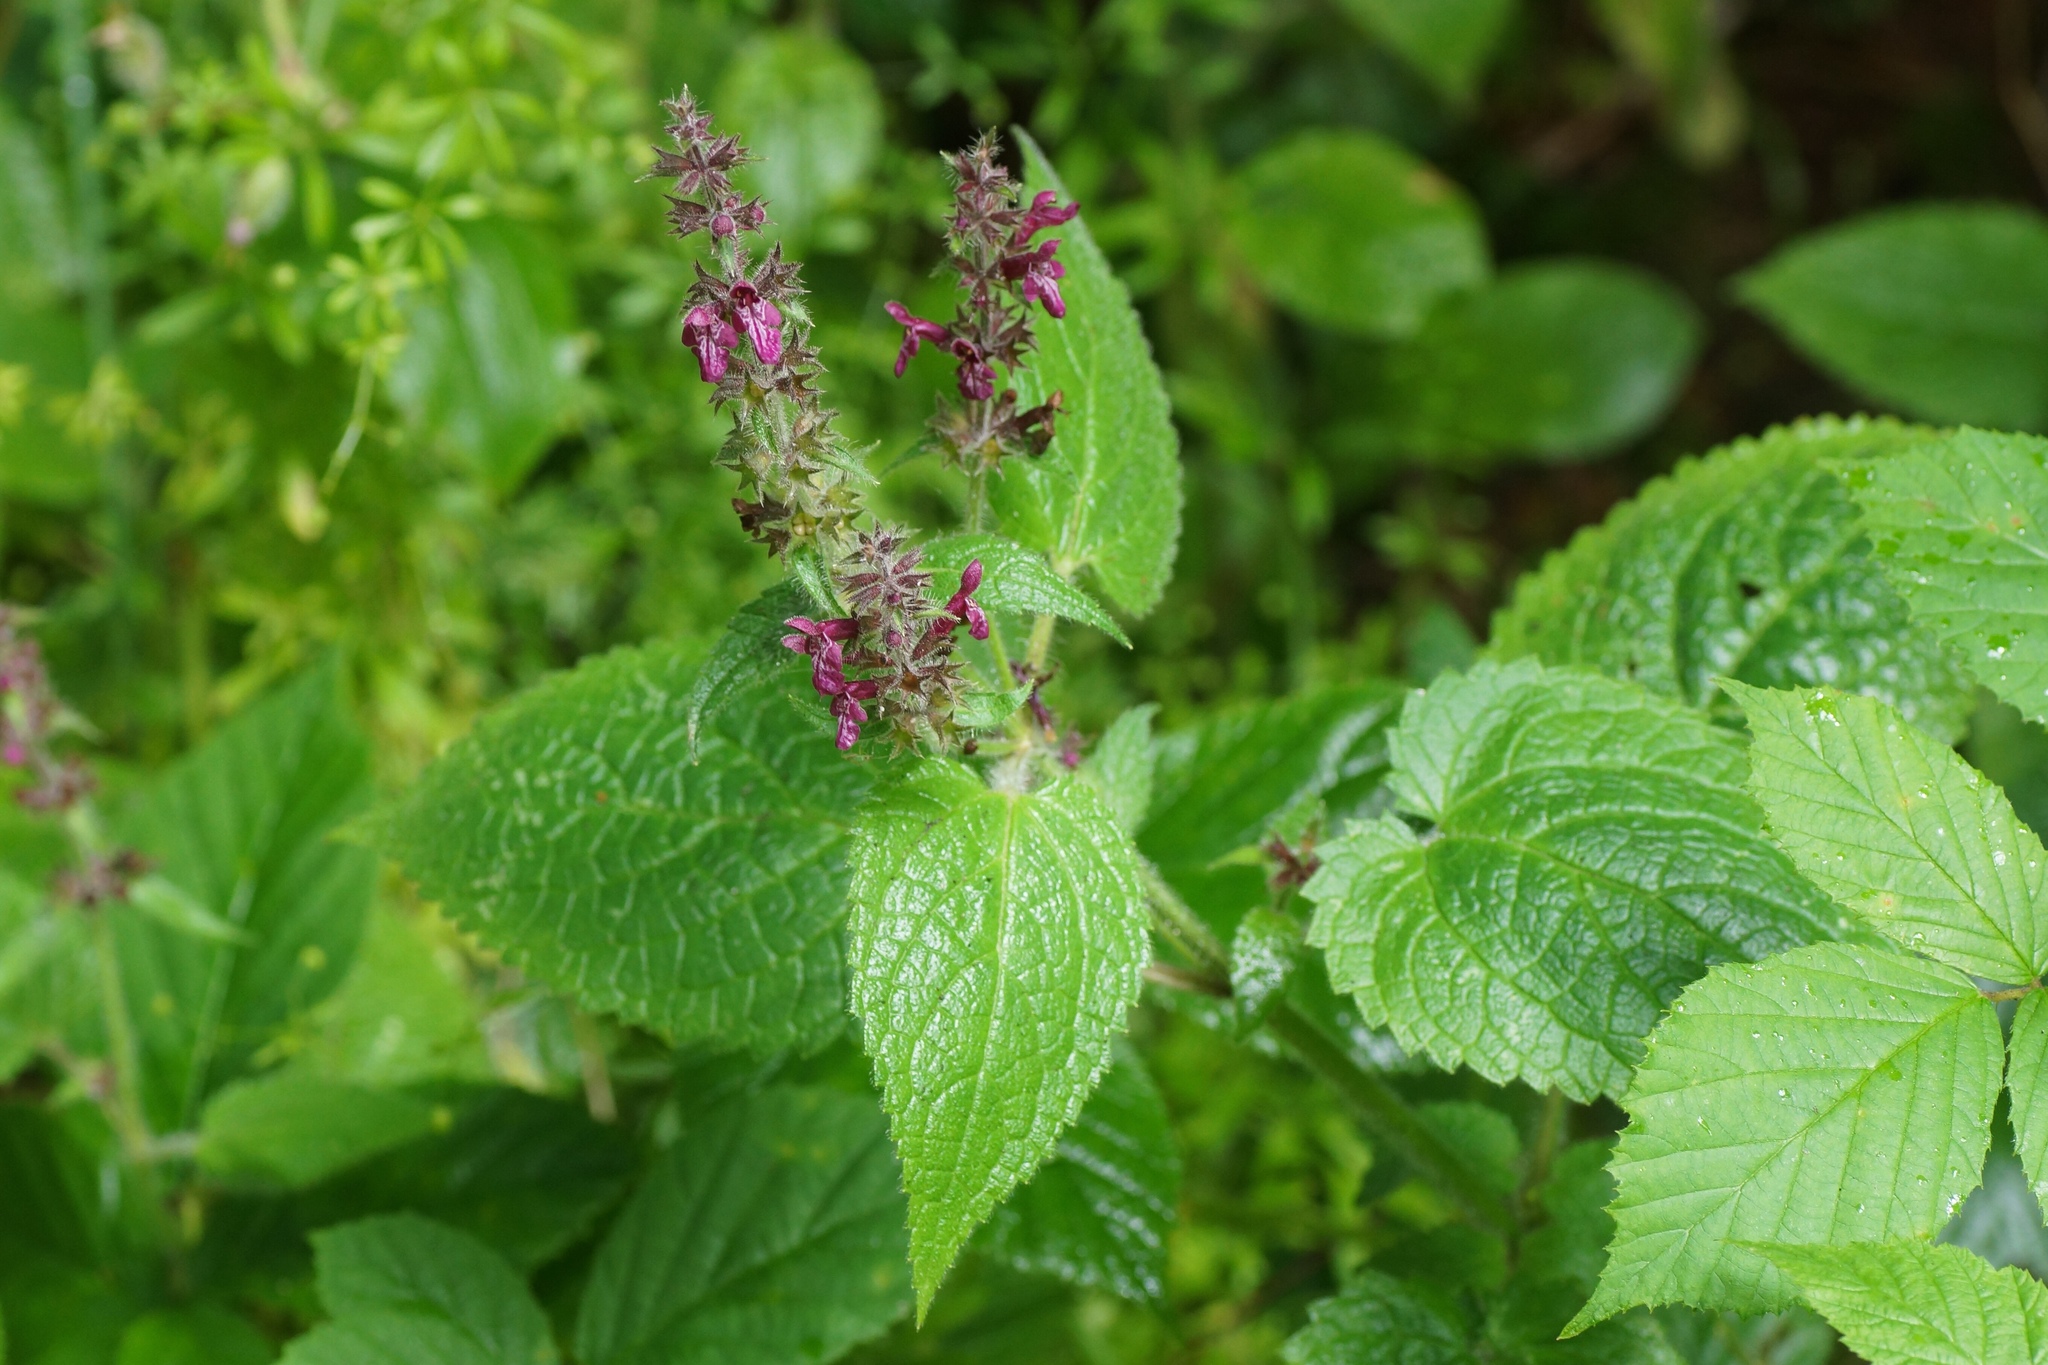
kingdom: Plantae
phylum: Tracheophyta
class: Magnoliopsida
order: Lamiales
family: Lamiaceae
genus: Stachys
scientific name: Stachys sylvatica
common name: Hedge woundwort
